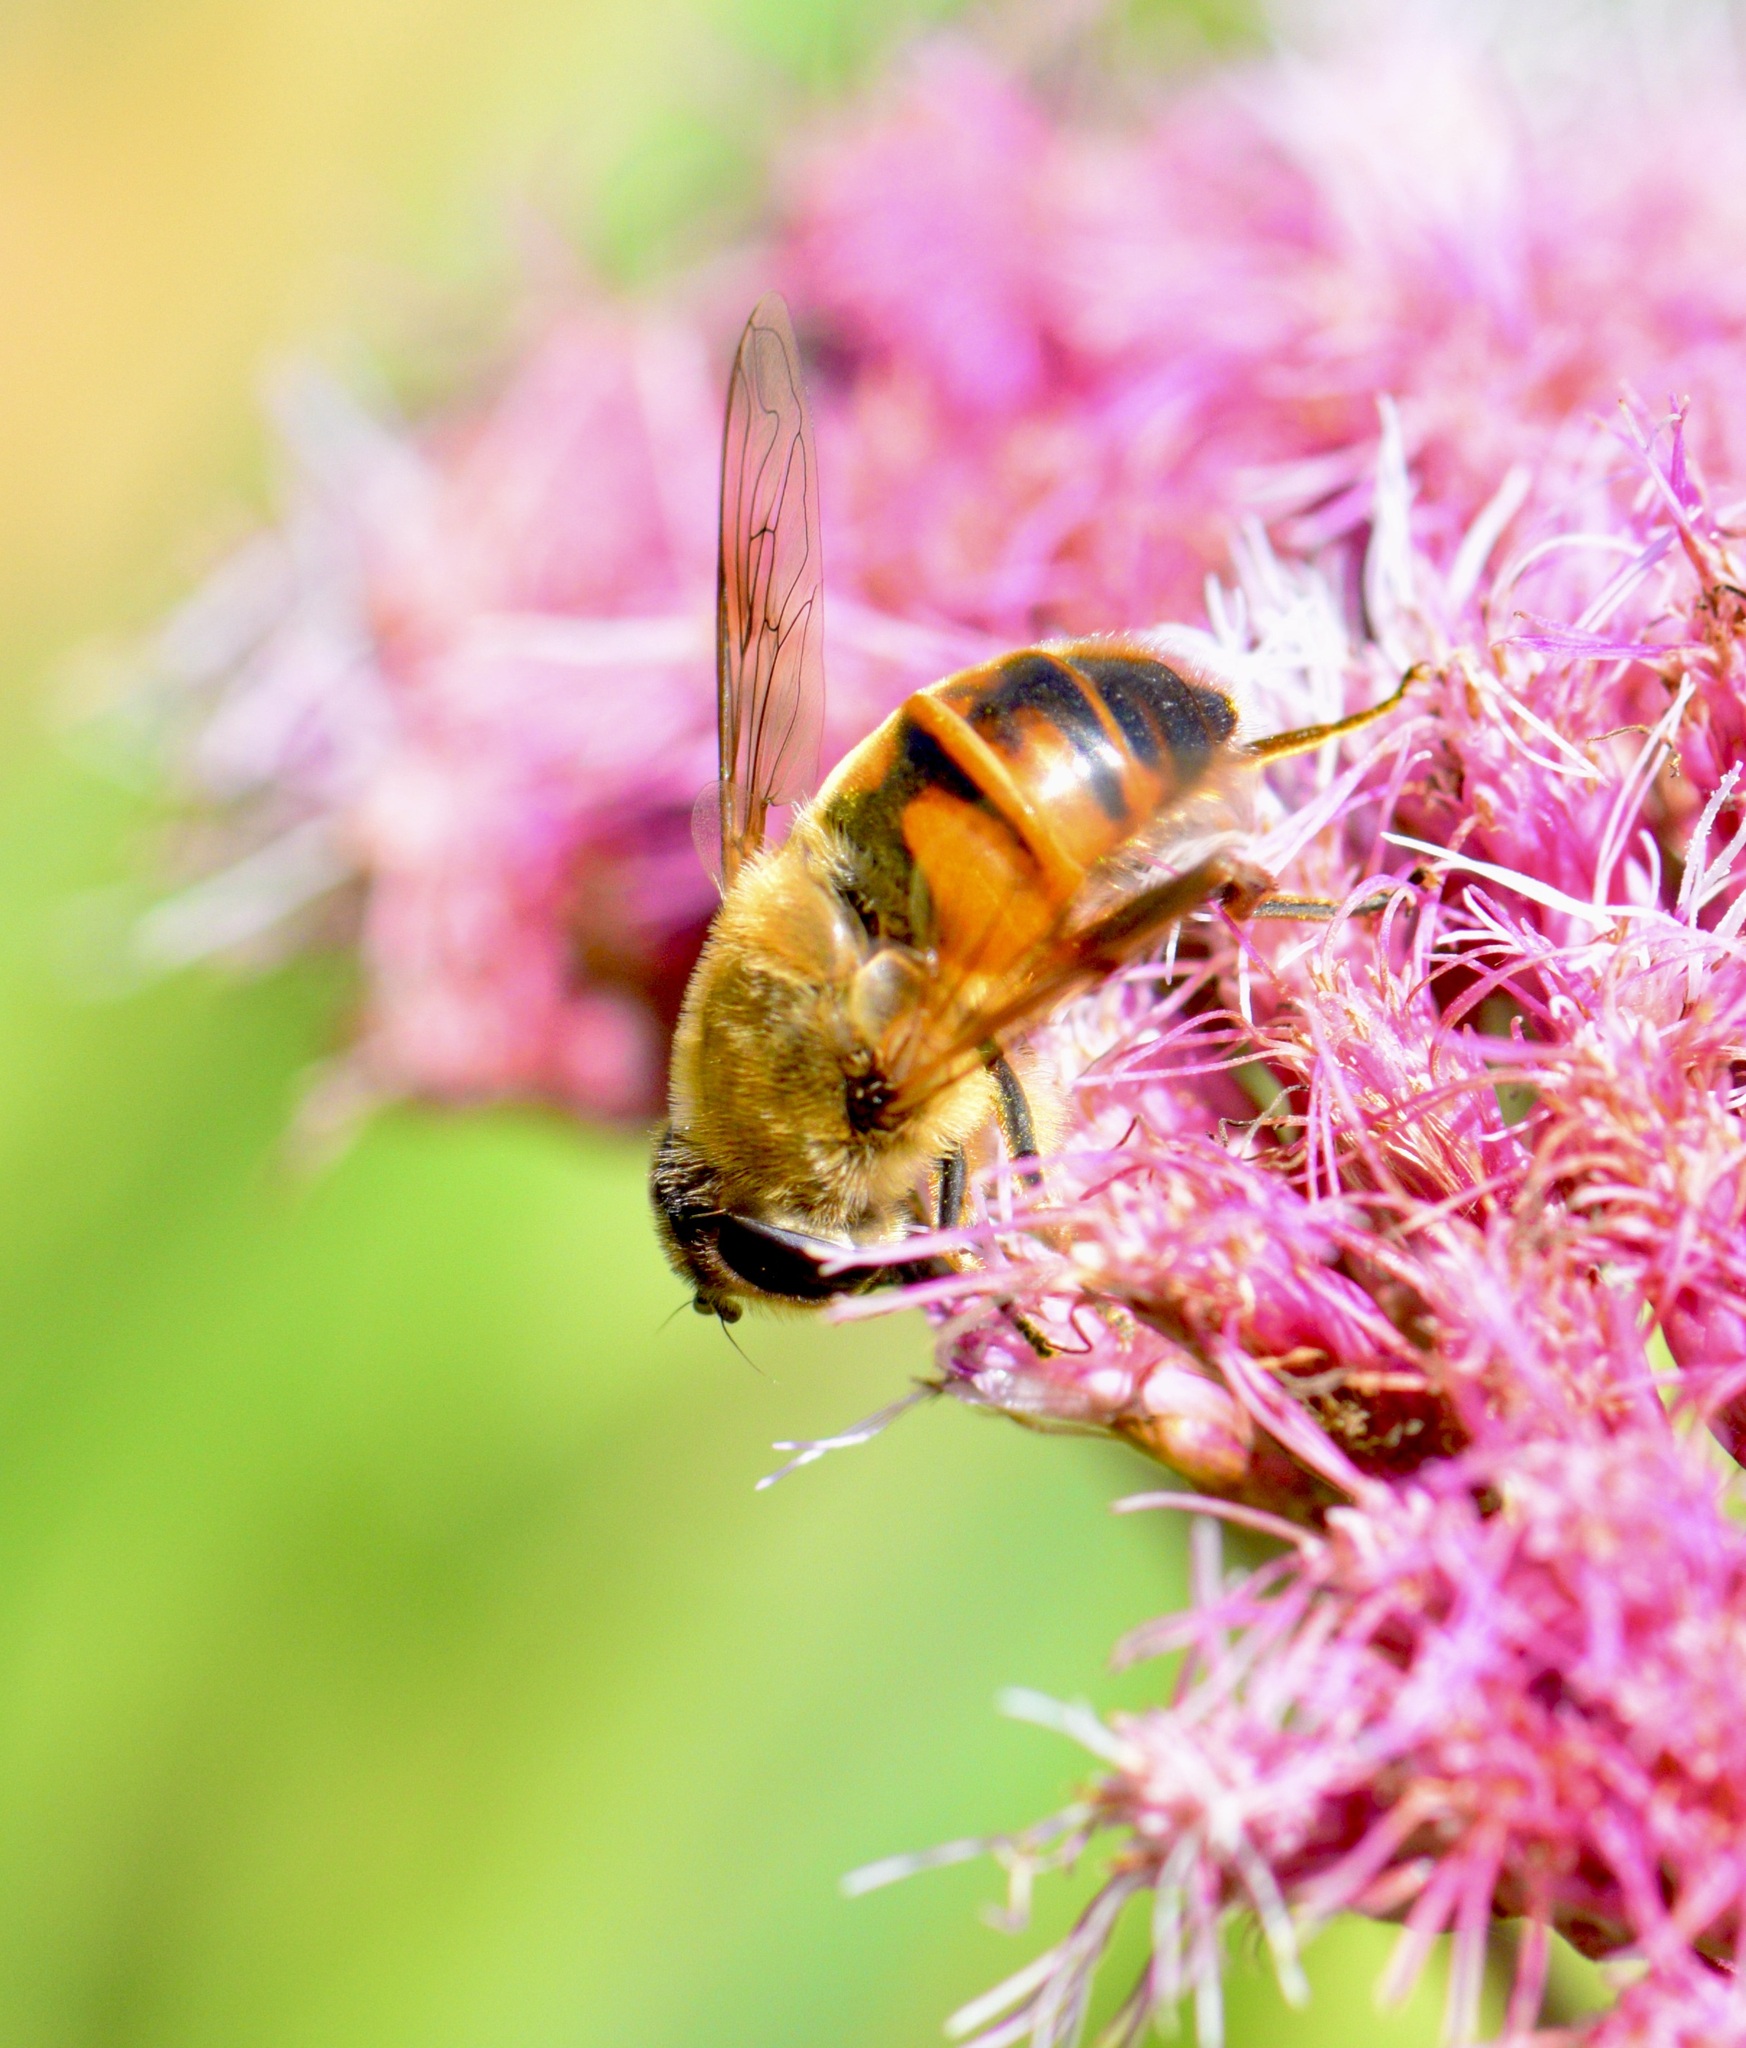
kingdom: Animalia
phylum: Arthropoda
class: Insecta
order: Diptera
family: Syrphidae
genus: Eristalis
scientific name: Eristalis tenax
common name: Drone fly
